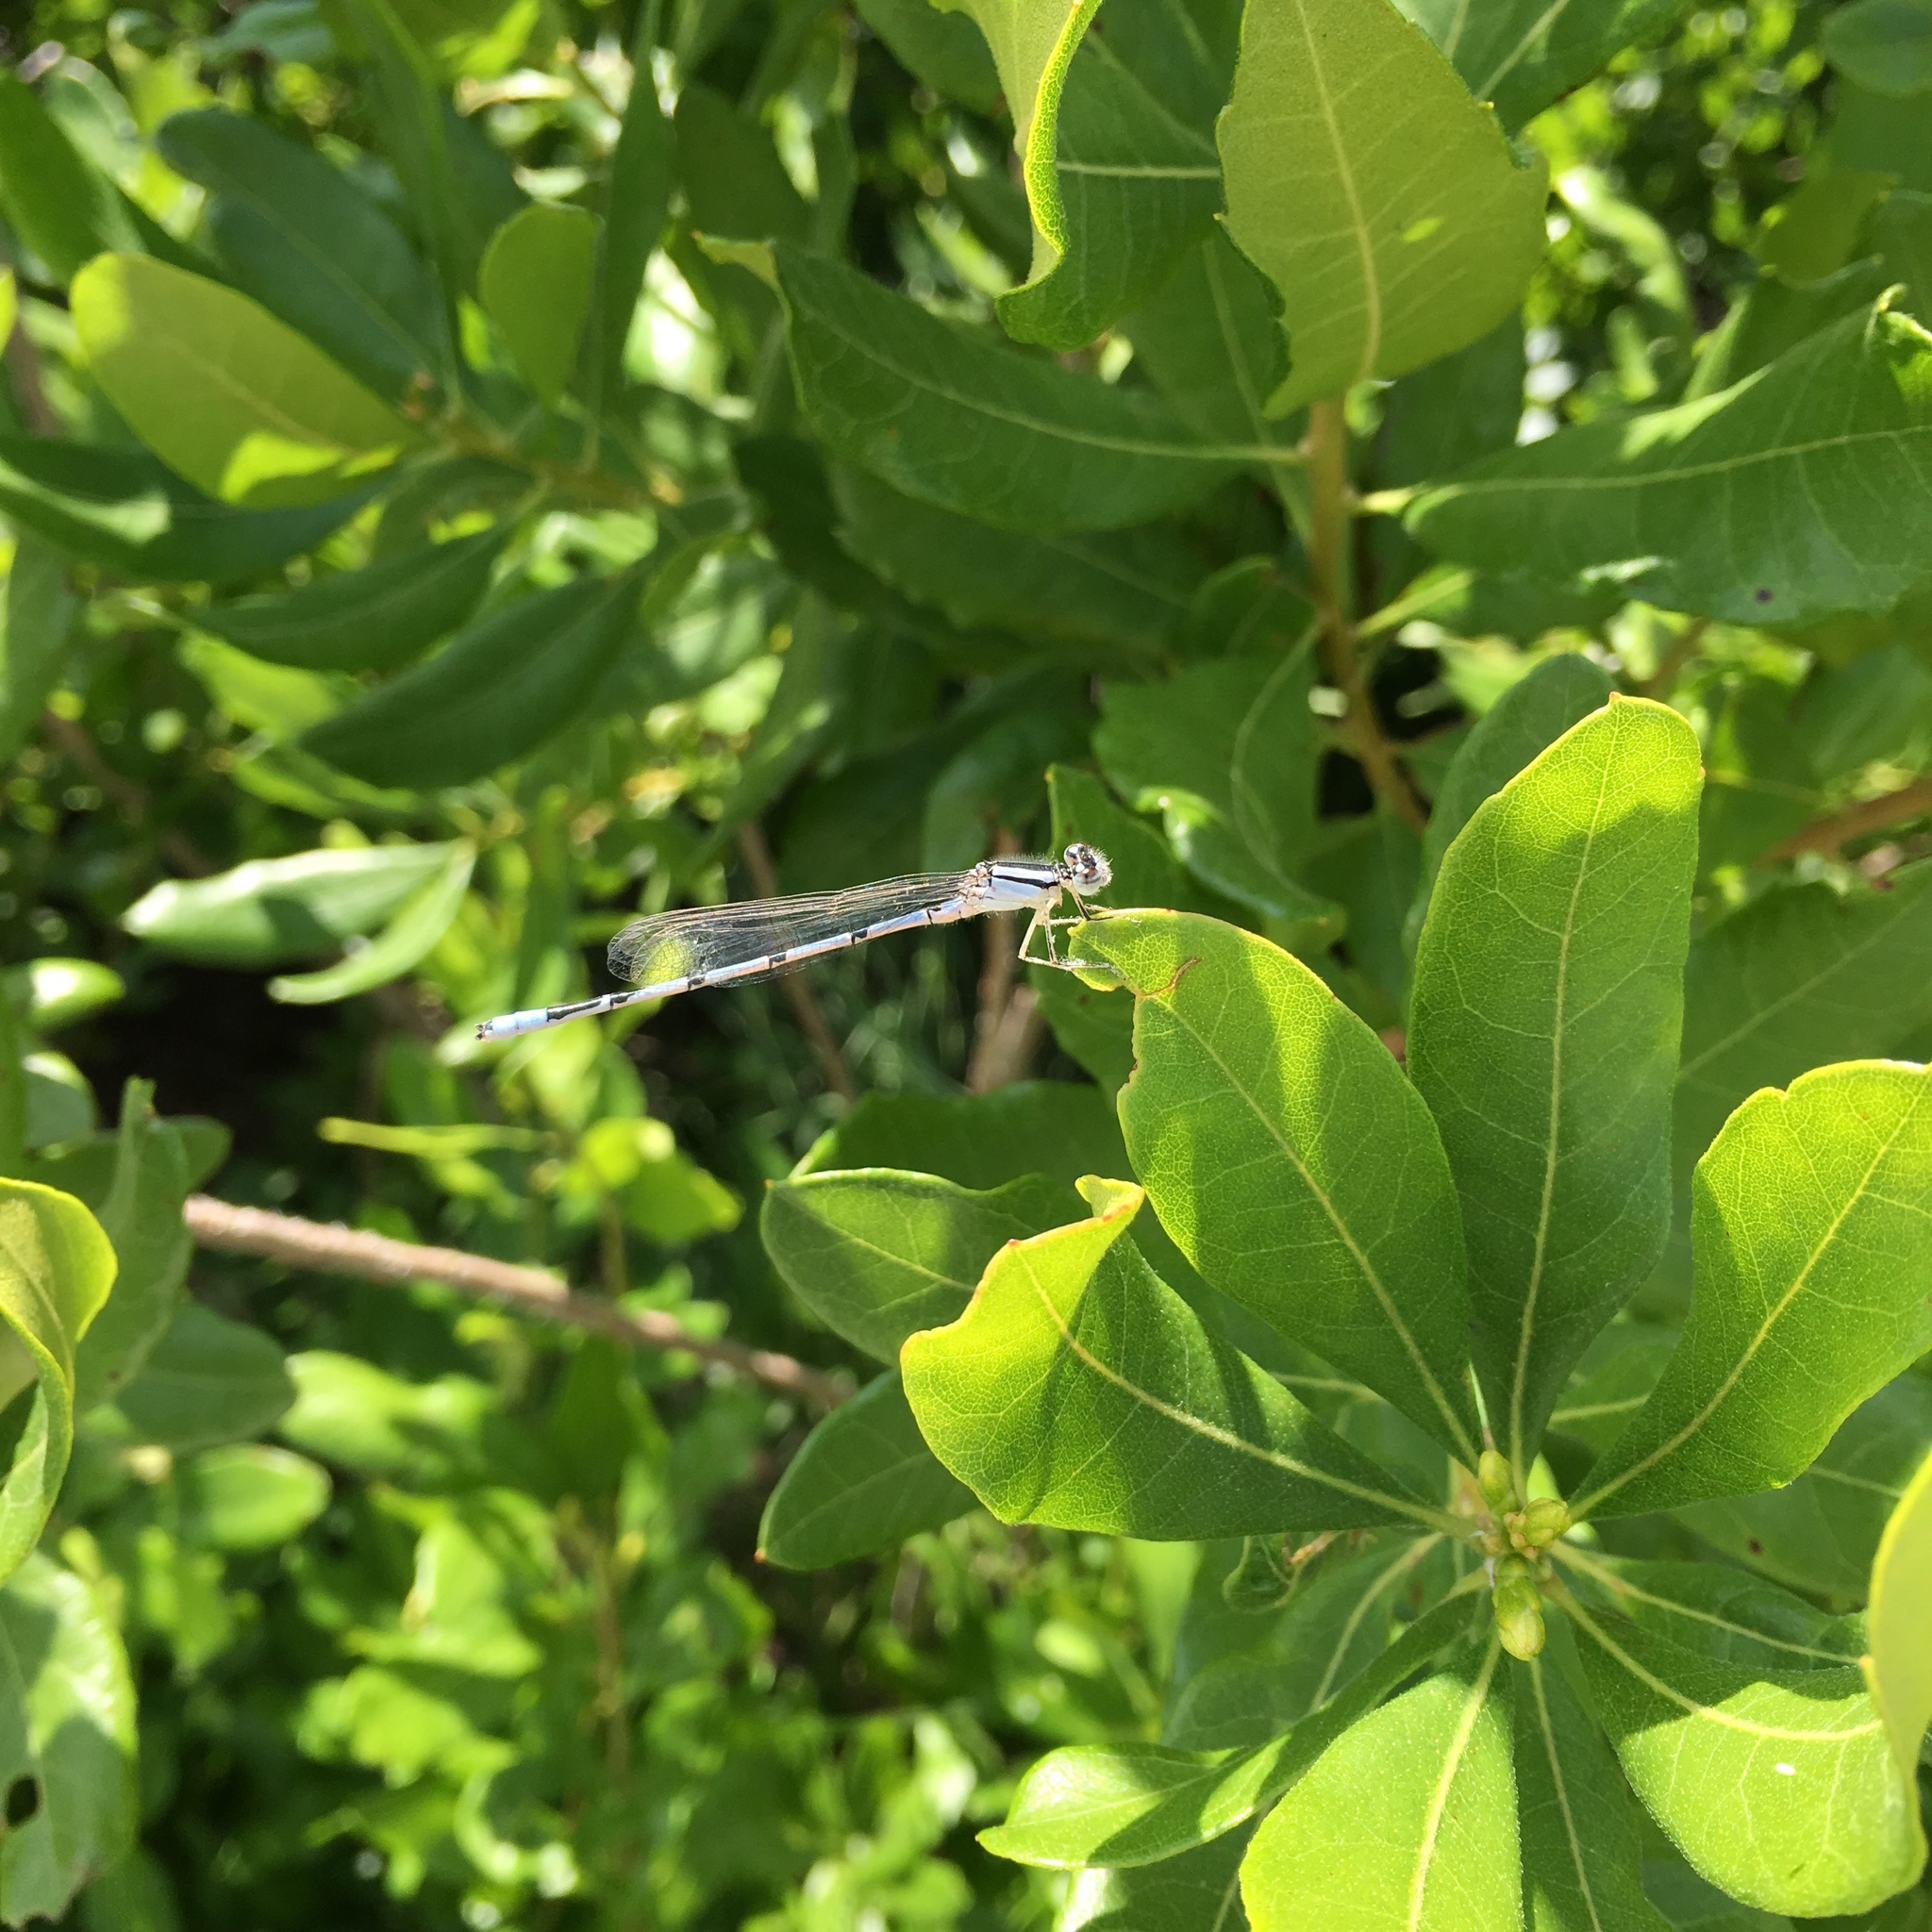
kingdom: Animalia
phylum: Arthropoda
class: Insecta
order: Odonata
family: Coenagrionidae
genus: Enallagma
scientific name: Enallagma civile
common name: Damselfly
